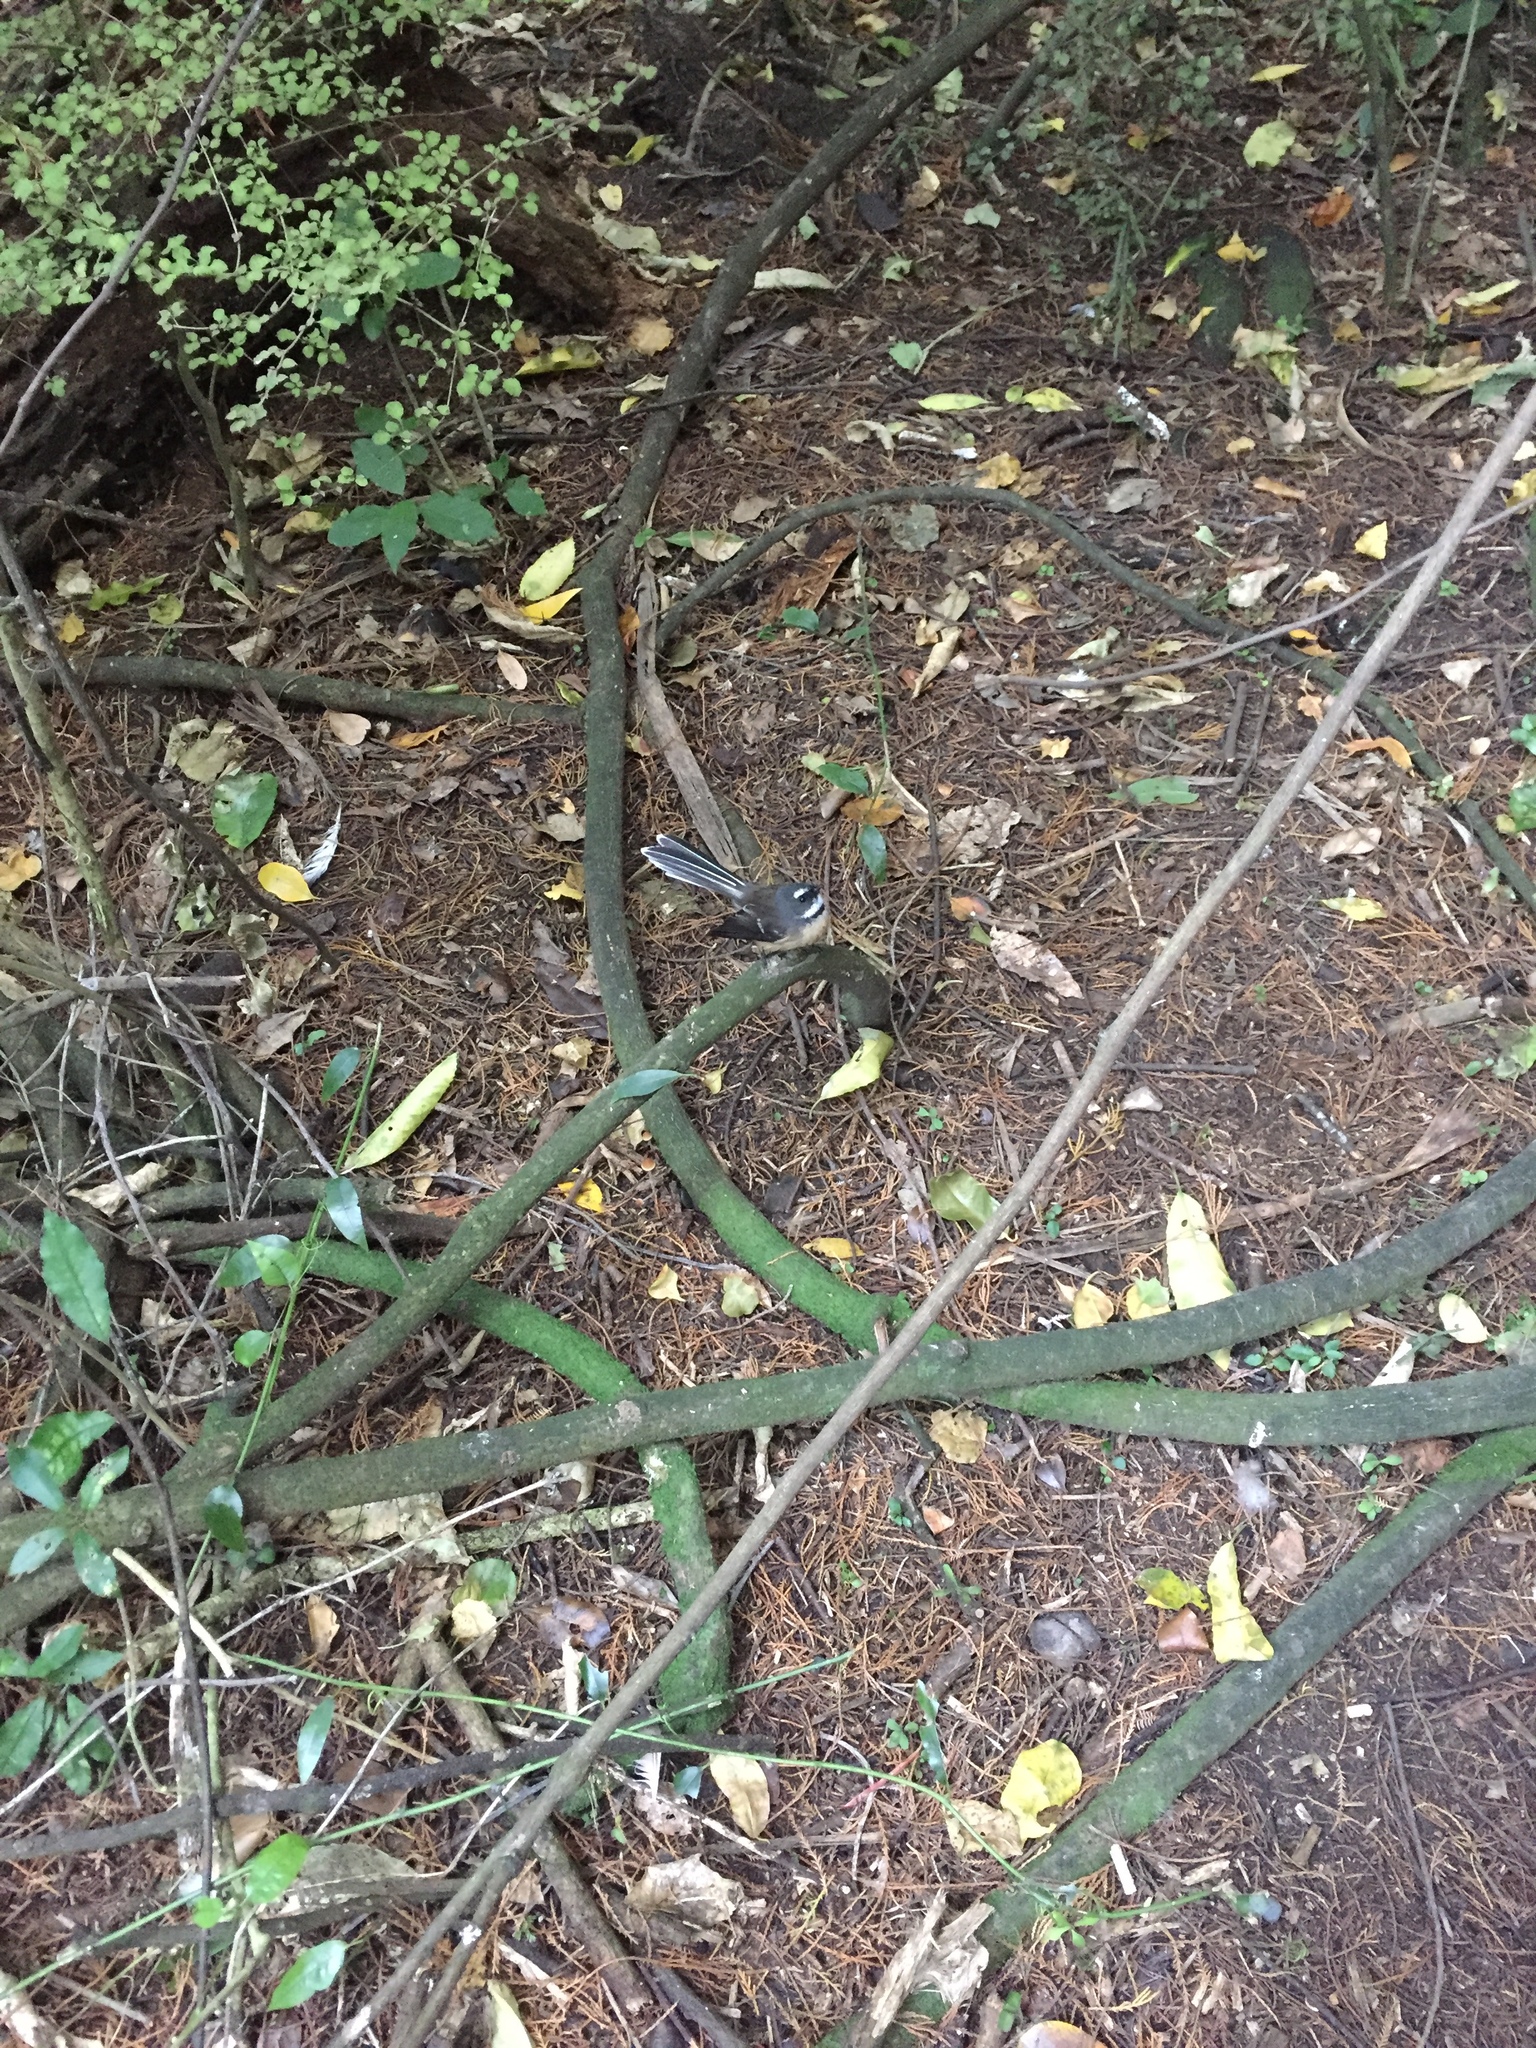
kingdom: Animalia
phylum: Chordata
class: Aves
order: Passeriformes
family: Rhipiduridae
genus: Rhipidura
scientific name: Rhipidura fuliginosa
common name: New zealand fantail
